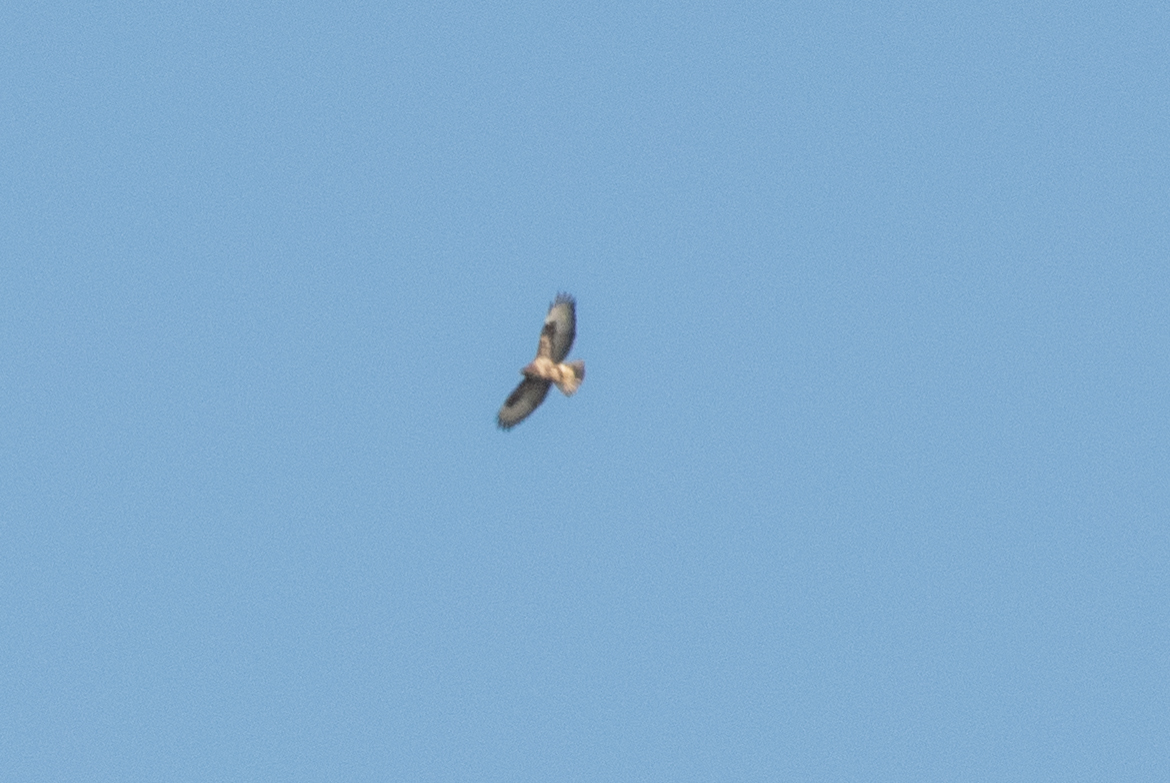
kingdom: Animalia
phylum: Chordata
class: Aves
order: Accipitriformes
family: Accipitridae
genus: Buteo
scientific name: Buteo buteo
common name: Common buzzard
